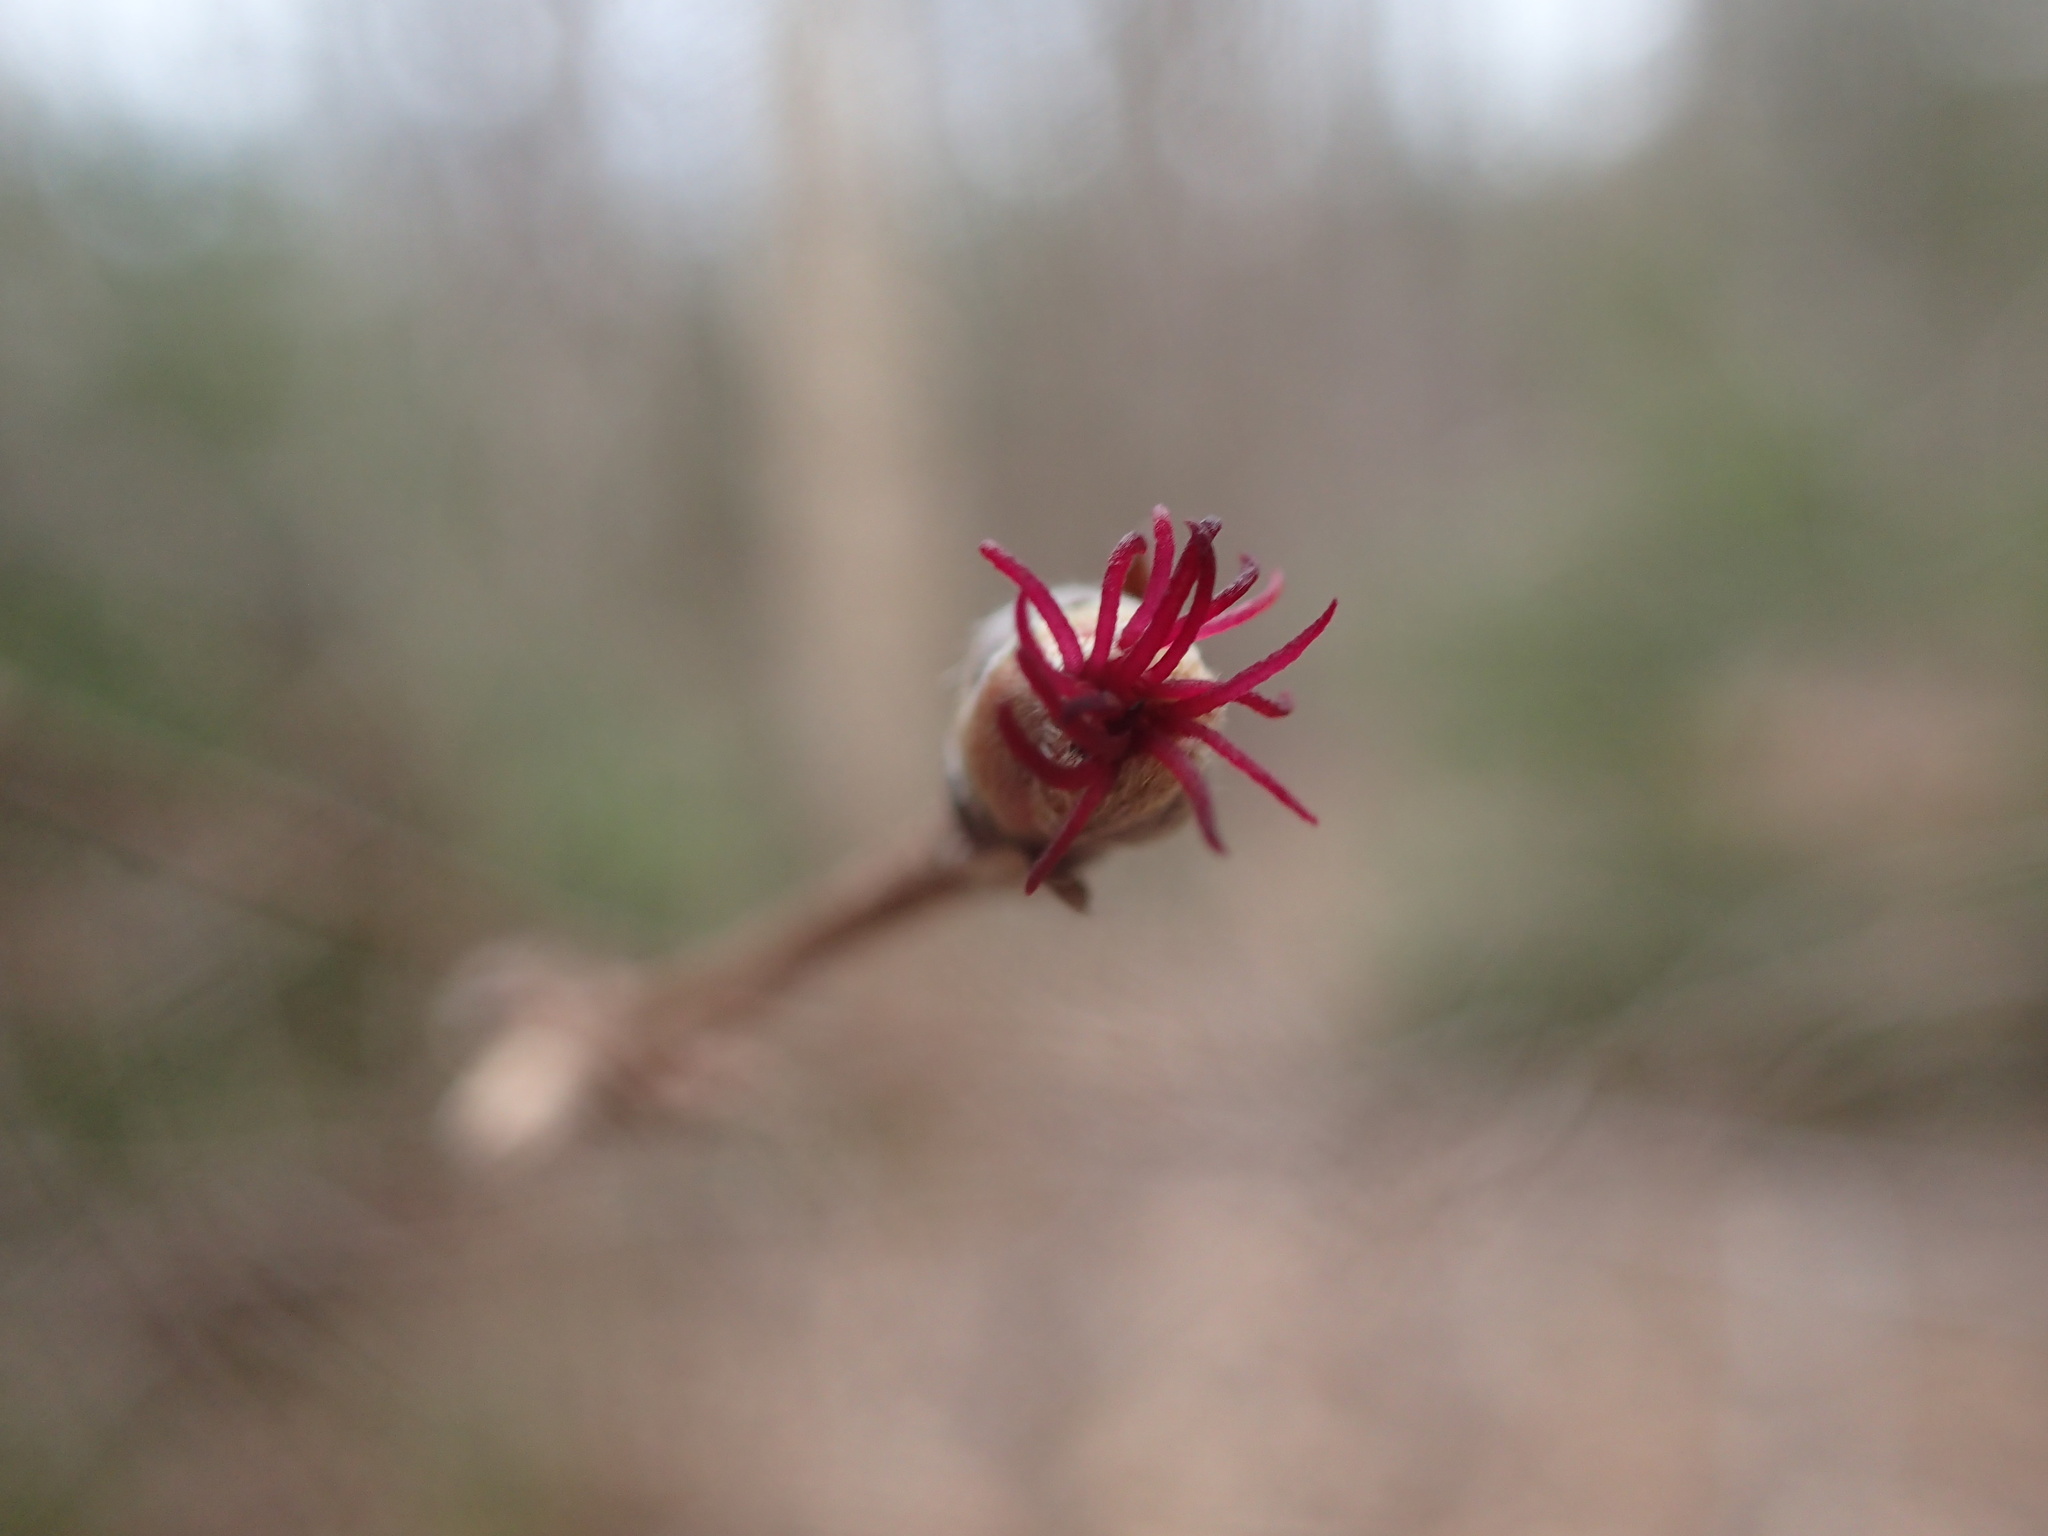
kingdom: Plantae
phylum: Tracheophyta
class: Magnoliopsida
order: Fagales
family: Betulaceae
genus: Corylus
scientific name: Corylus cornuta
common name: Beaked hazel
